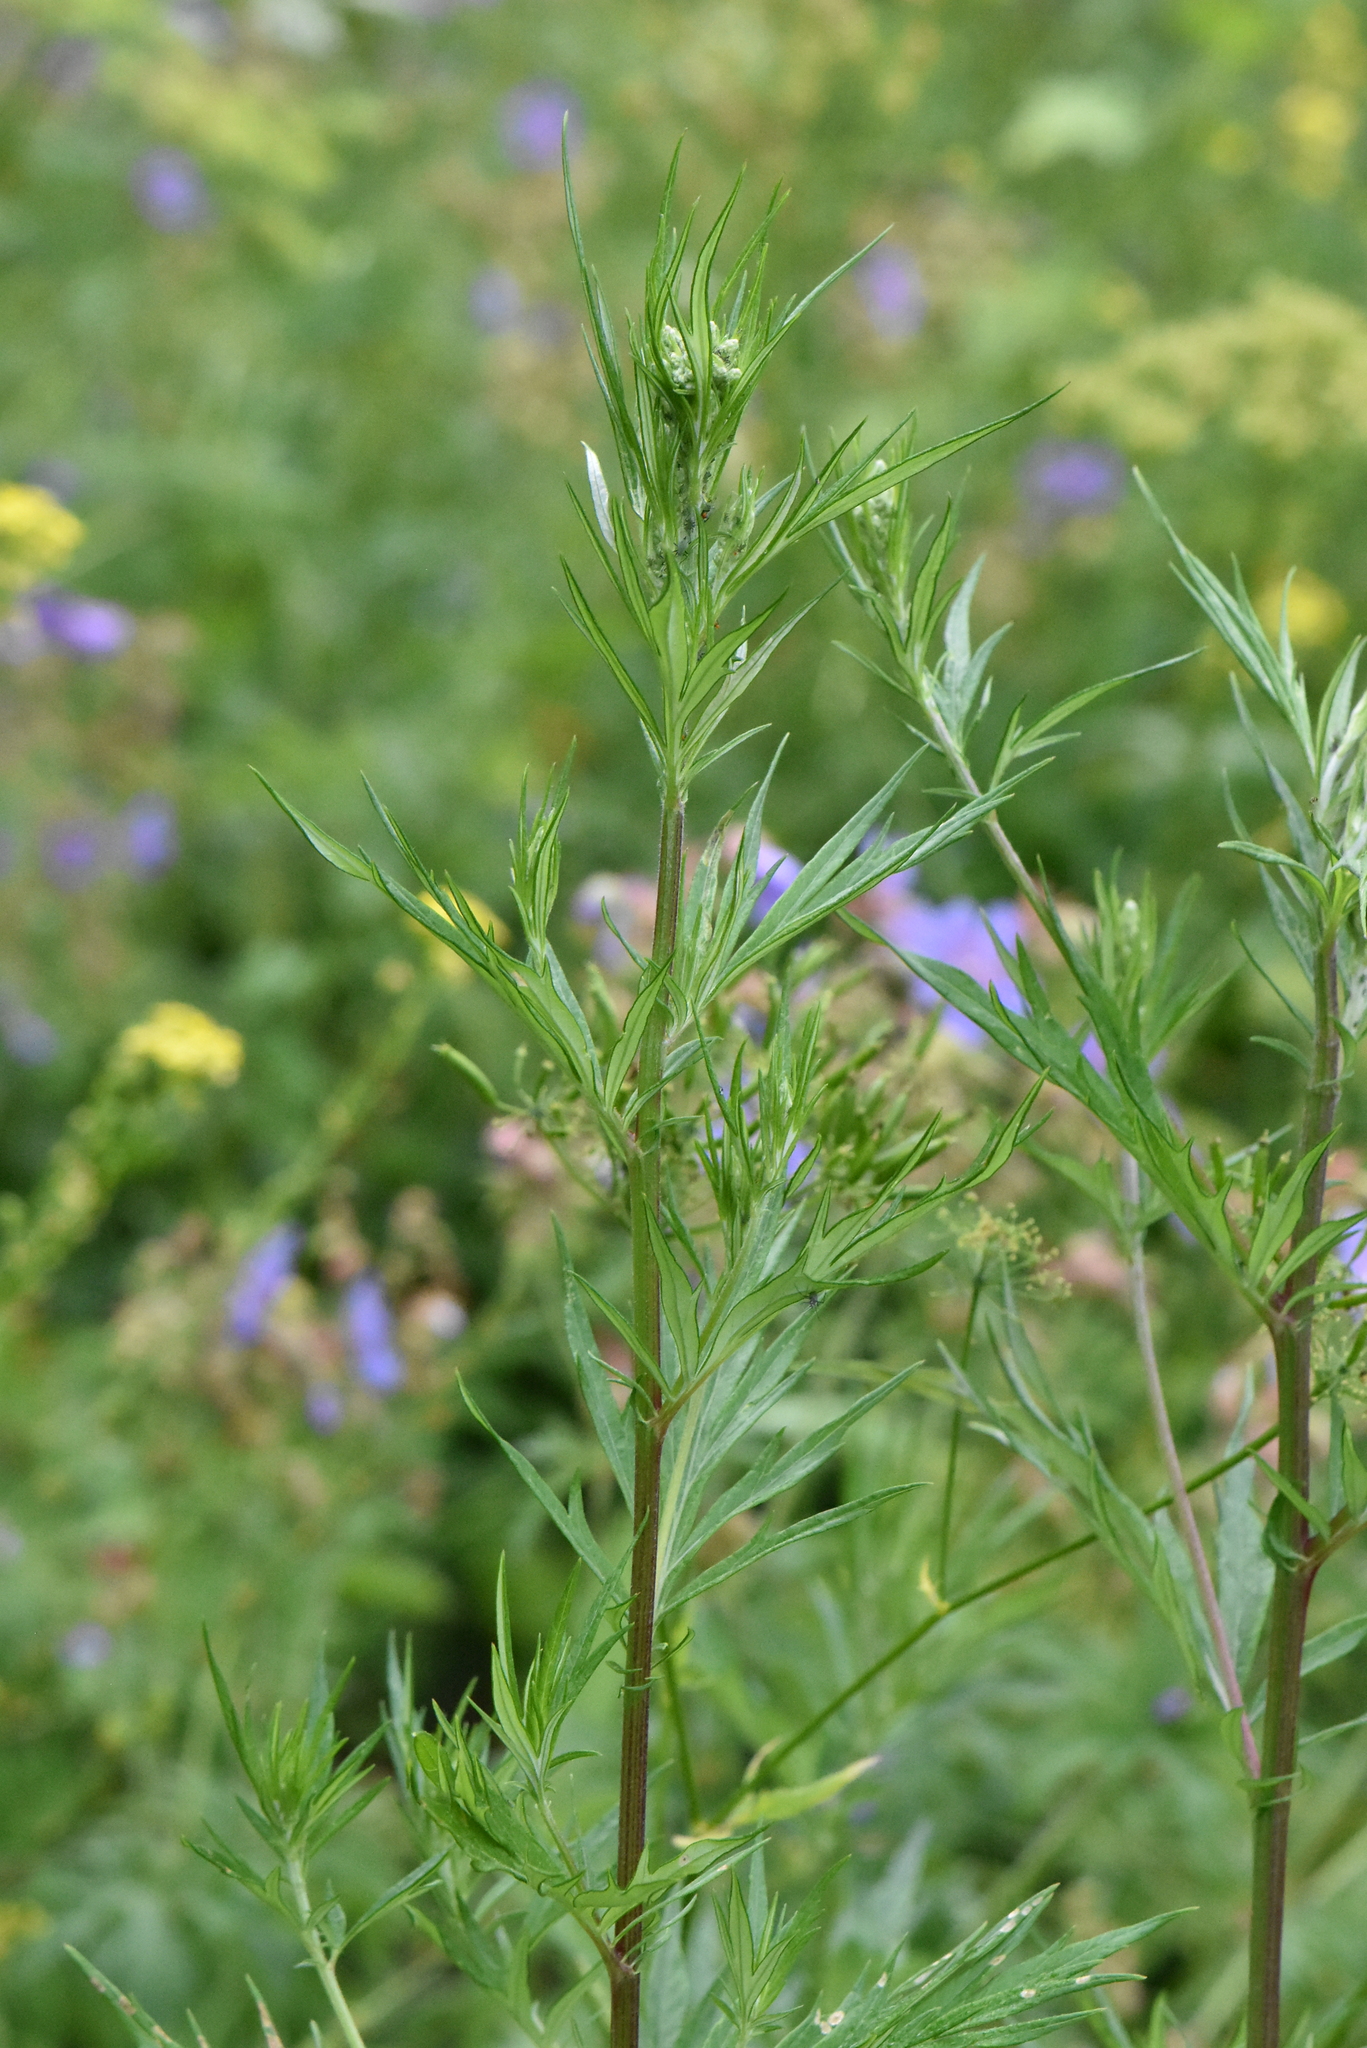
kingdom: Plantae
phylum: Tracheophyta
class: Magnoliopsida
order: Asterales
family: Asteraceae
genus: Artemisia
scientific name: Artemisia vulgaris
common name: Mugwort
